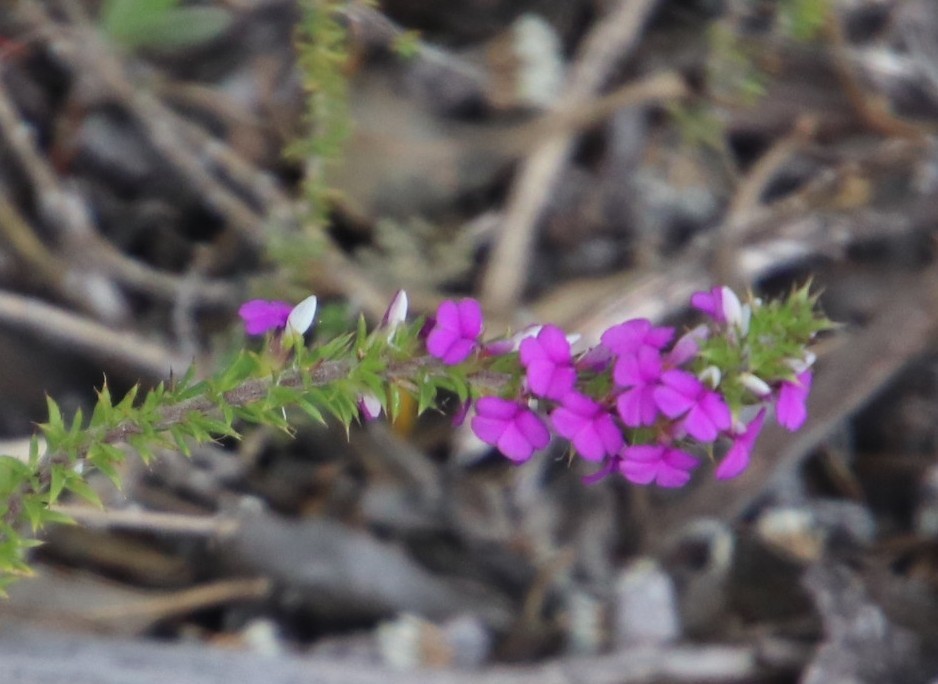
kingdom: Plantae
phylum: Tracheophyta
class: Magnoliopsida
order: Fabales
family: Polygalaceae
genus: Muraltia
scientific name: Muraltia heisteria
